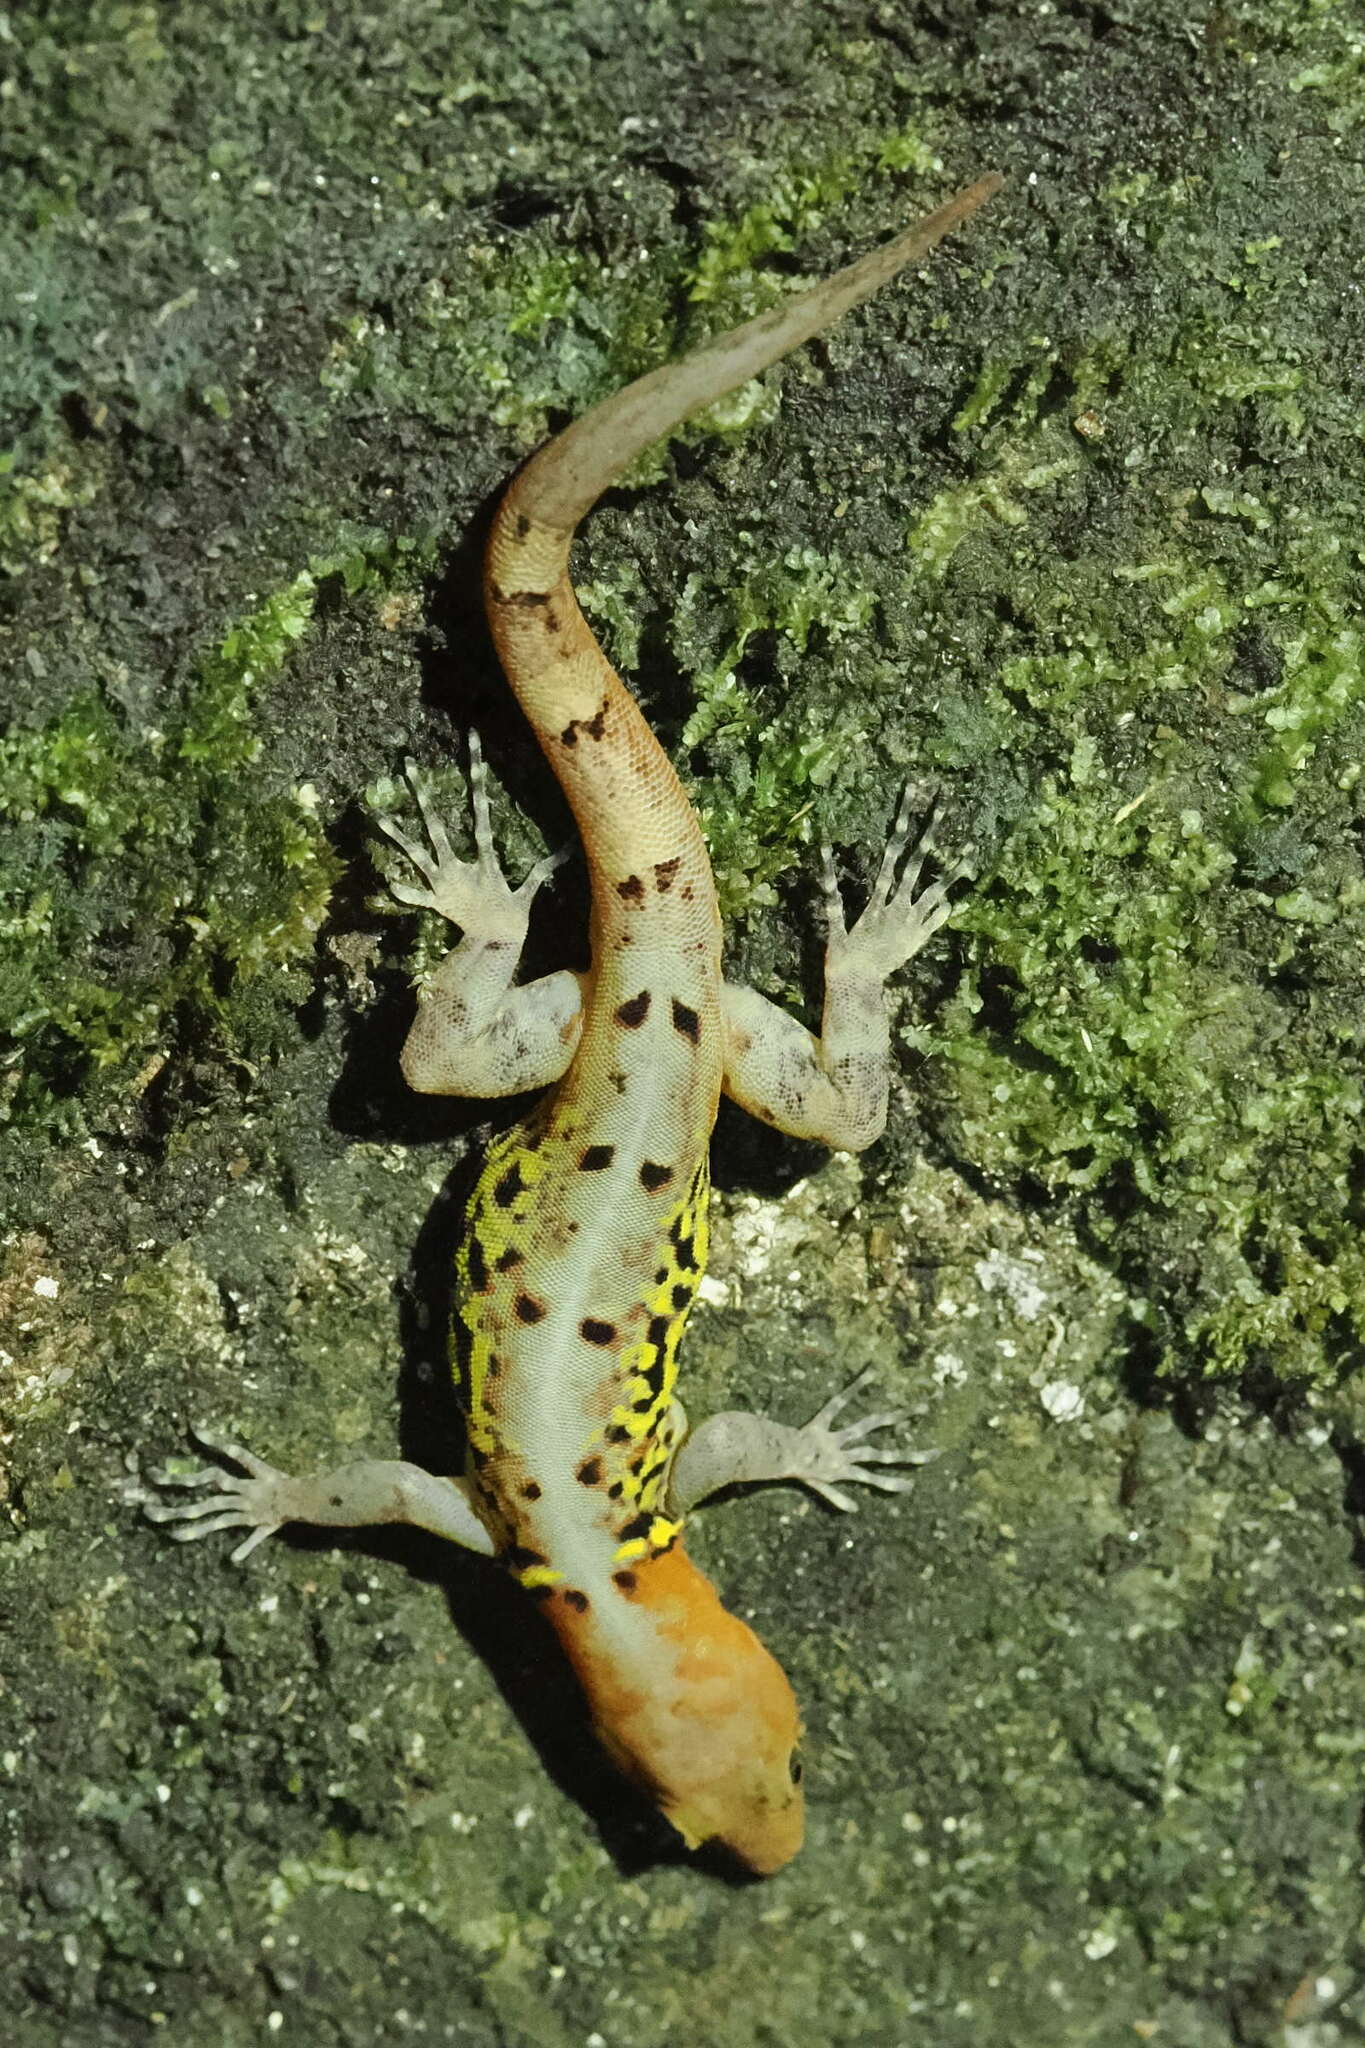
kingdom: Animalia
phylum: Chordata
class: Squamata
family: Sphaerodactylidae
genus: Gonatodes
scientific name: Gonatodes ceciliae
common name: Brilliant south american gecko
